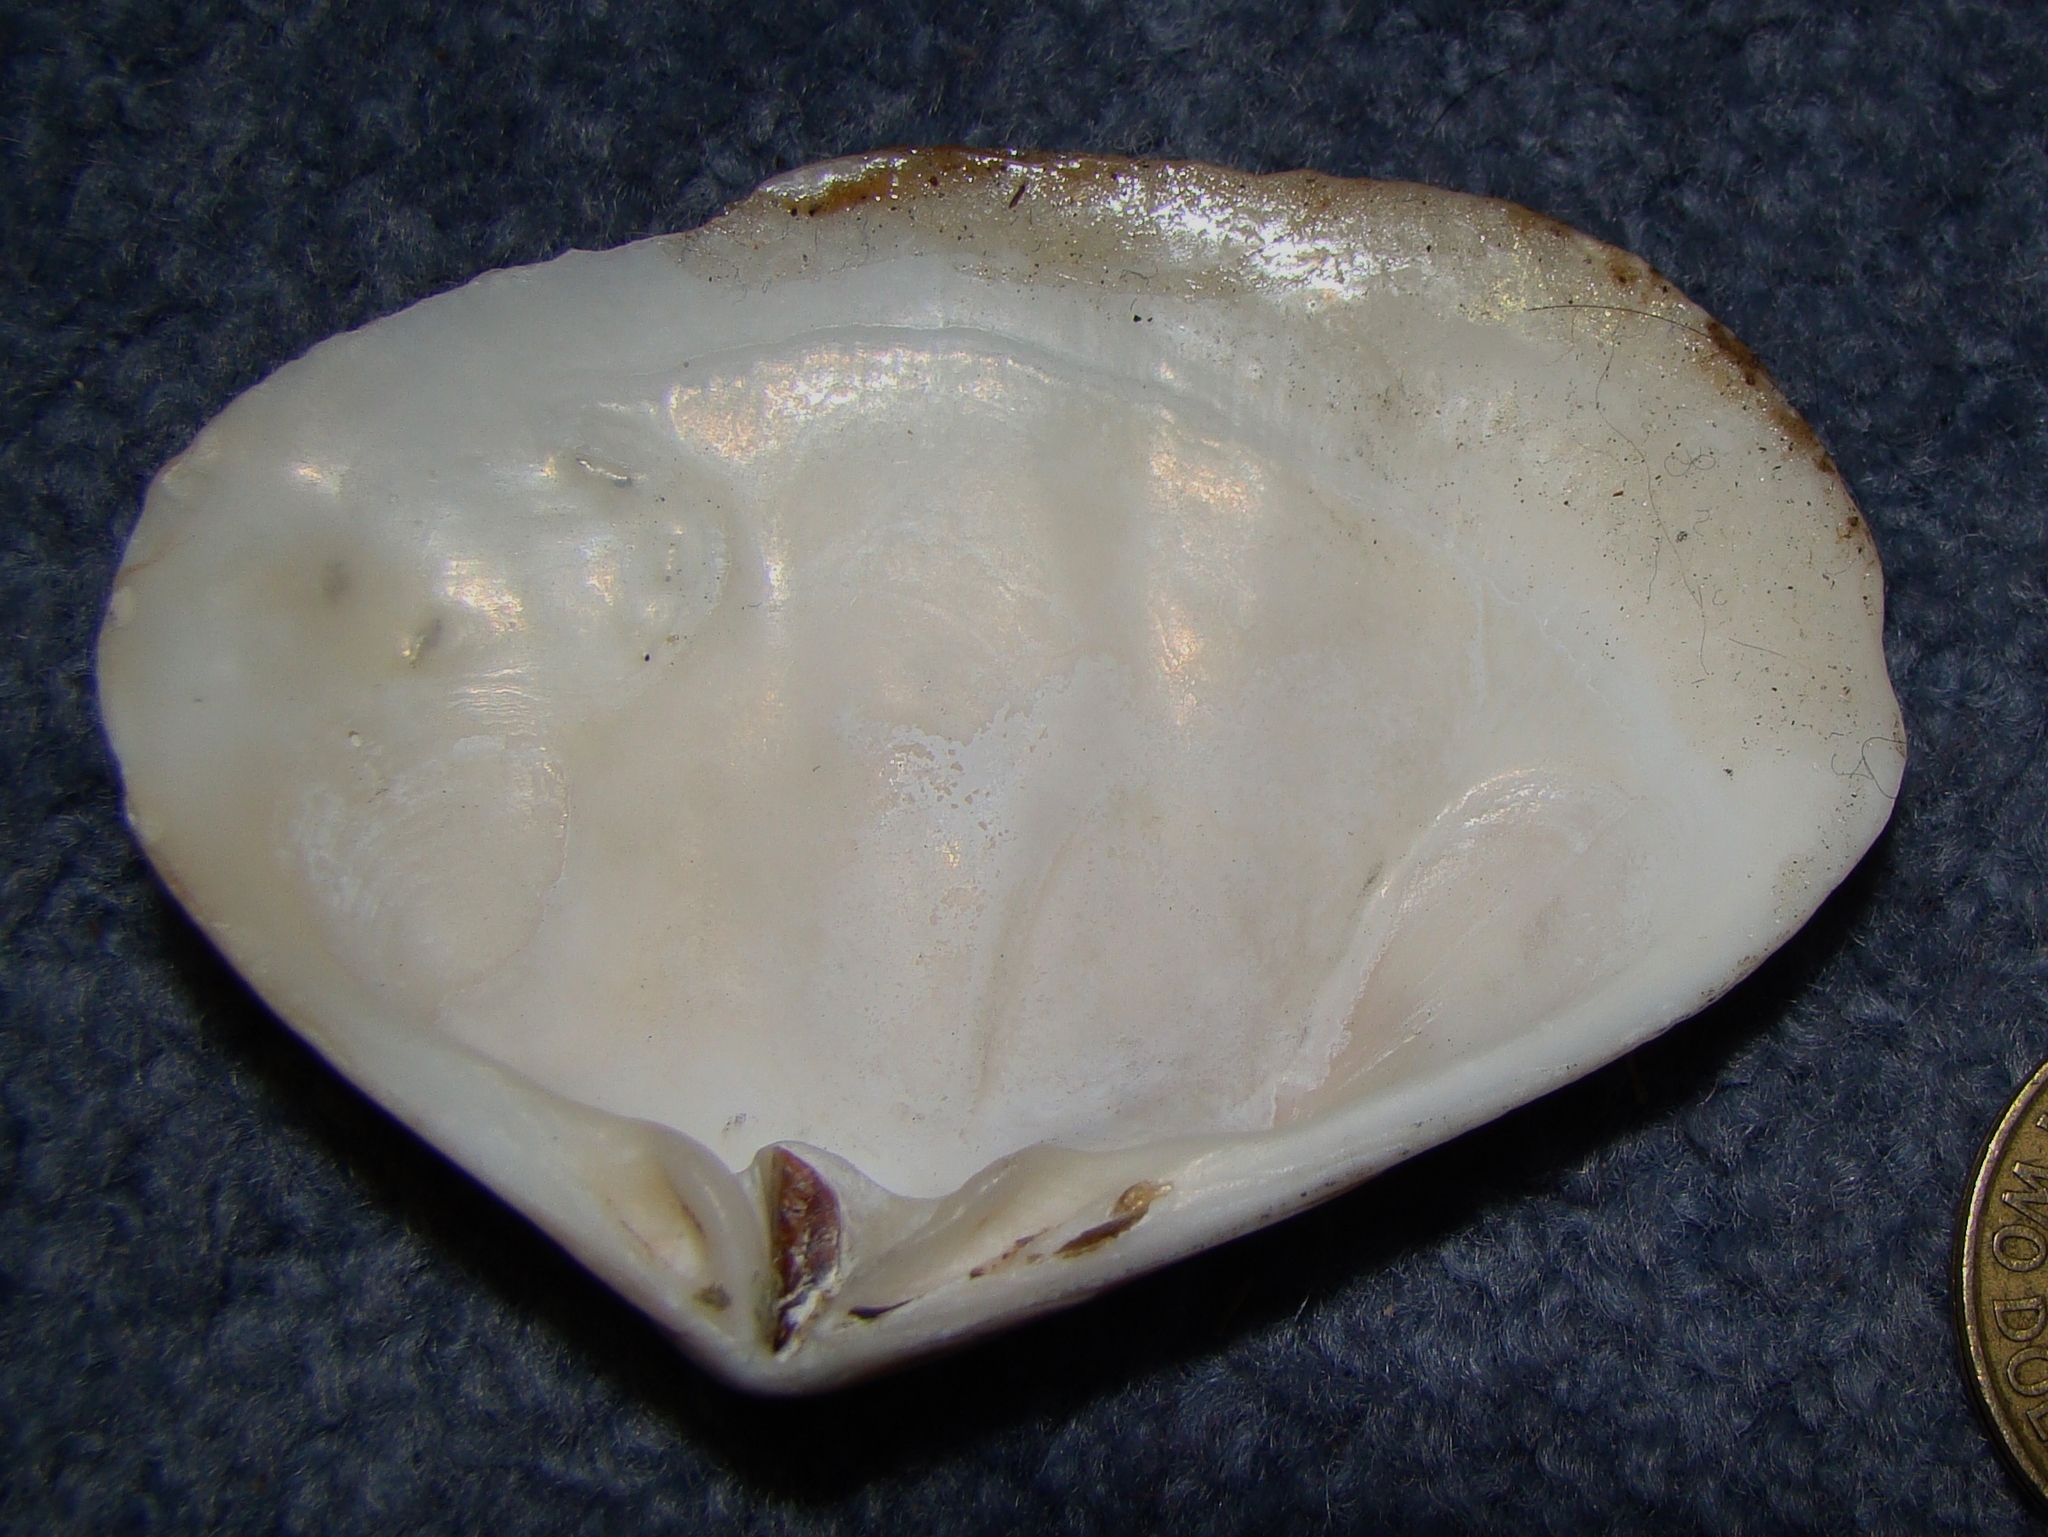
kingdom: Animalia
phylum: Mollusca
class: Bivalvia
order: Venerida
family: Mesodesmatidae
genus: Paphies
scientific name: Paphies subtriangulata
